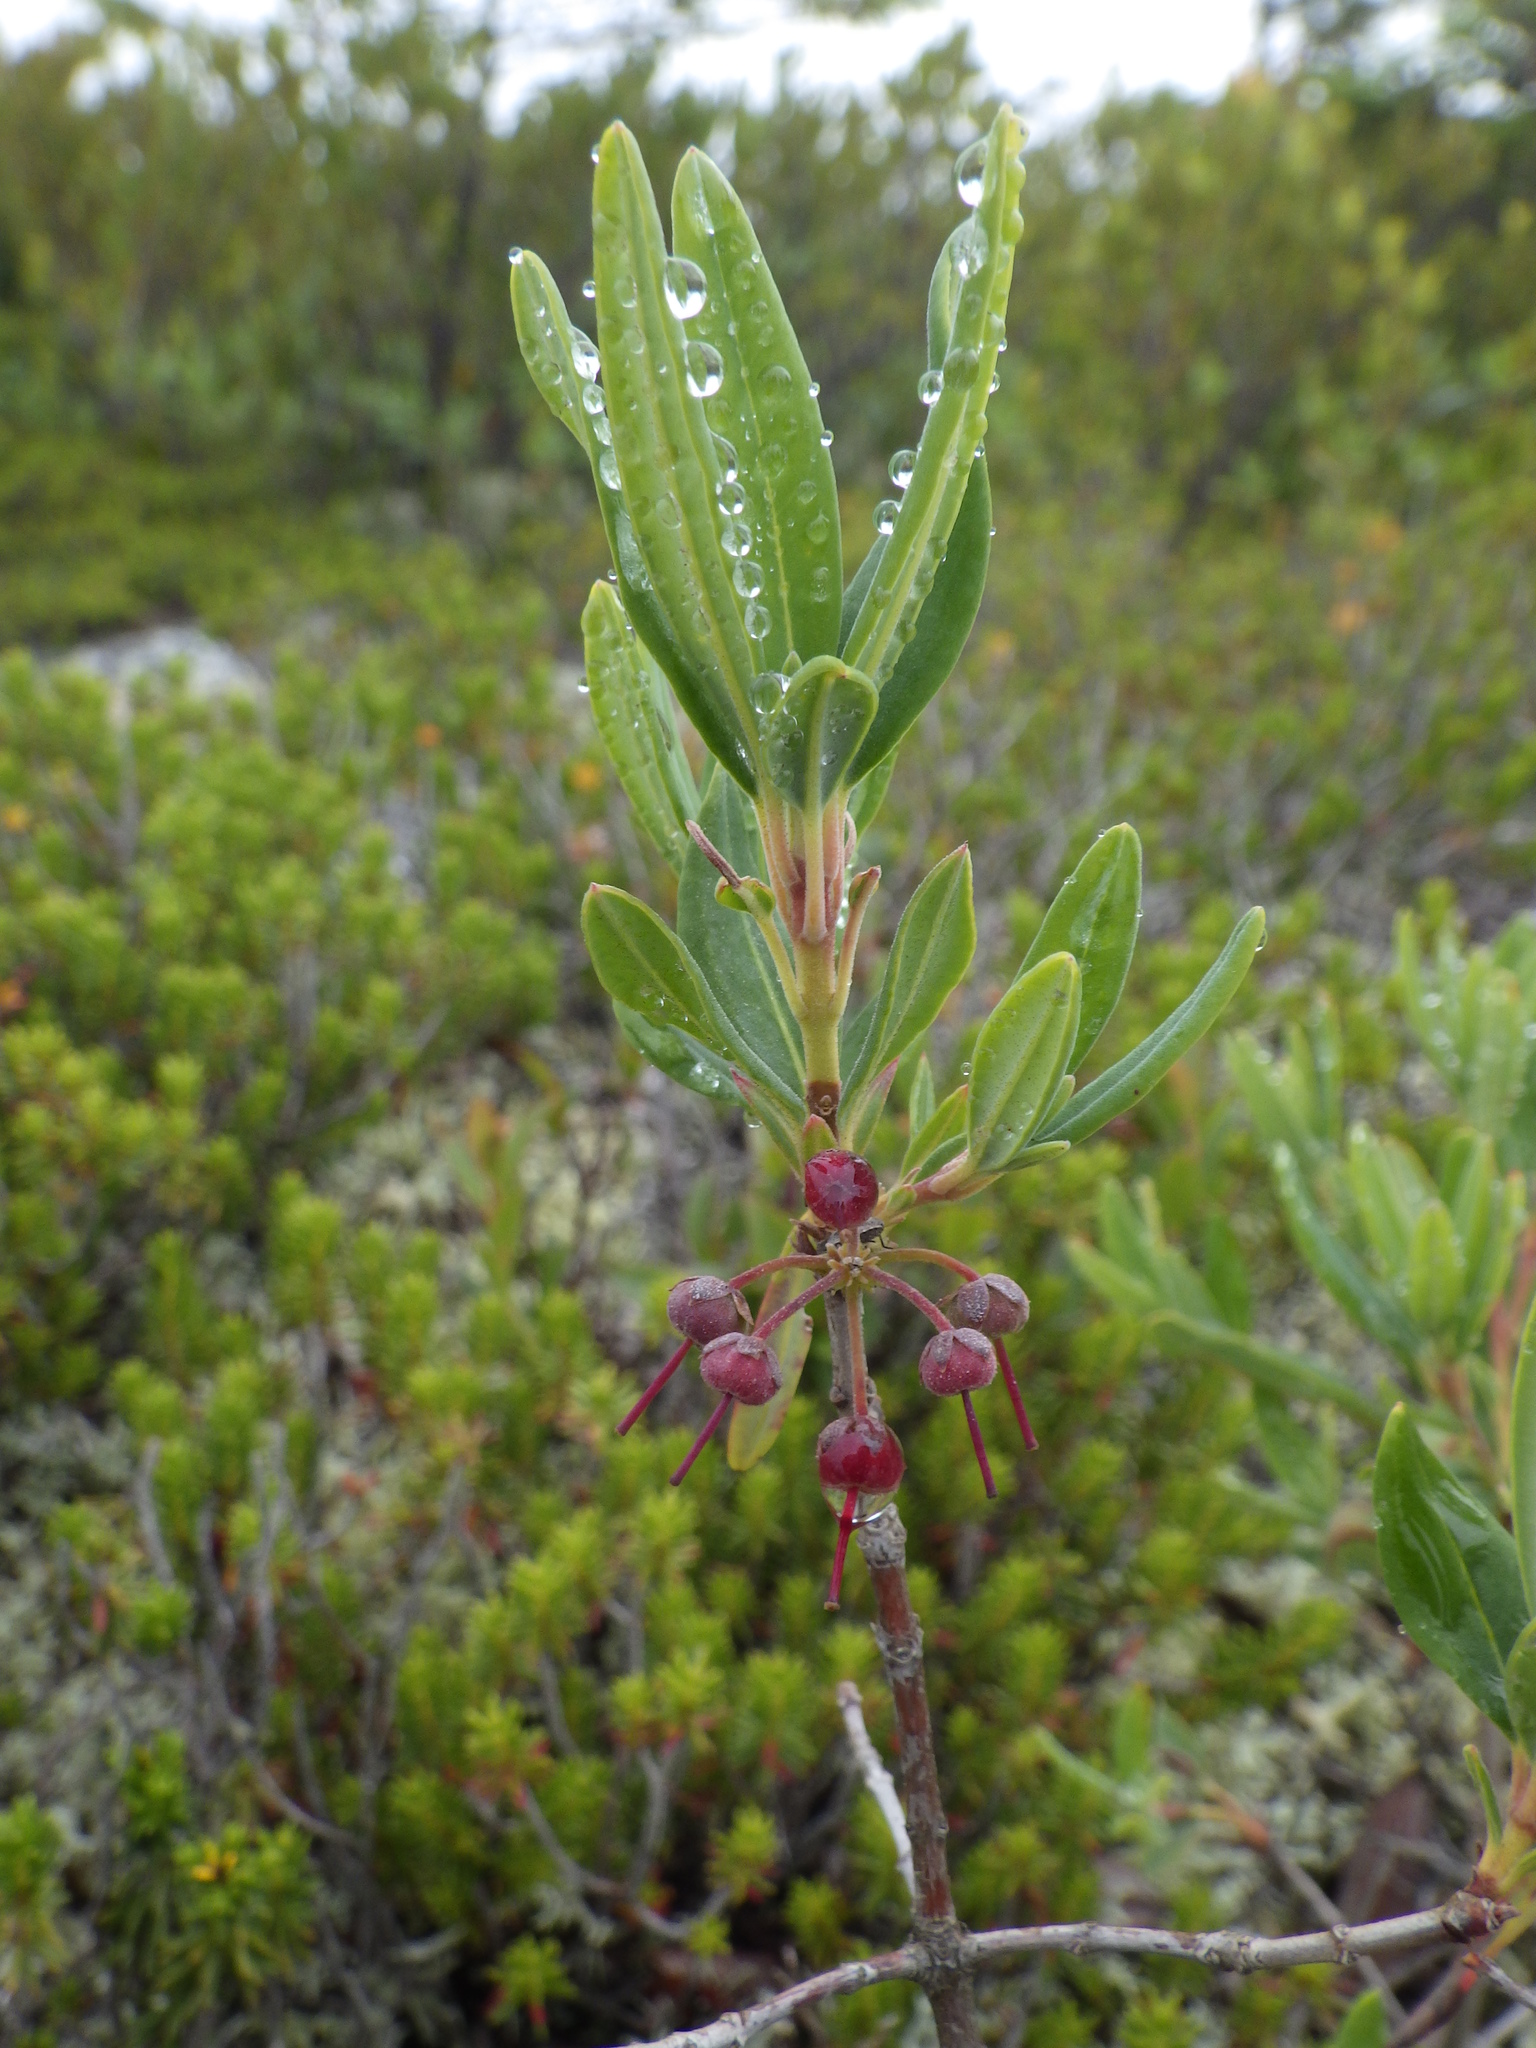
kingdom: Plantae
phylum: Tracheophyta
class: Magnoliopsida
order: Ericales
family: Ericaceae
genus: Kalmia
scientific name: Kalmia angustifolia
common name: Sheep-laurel
